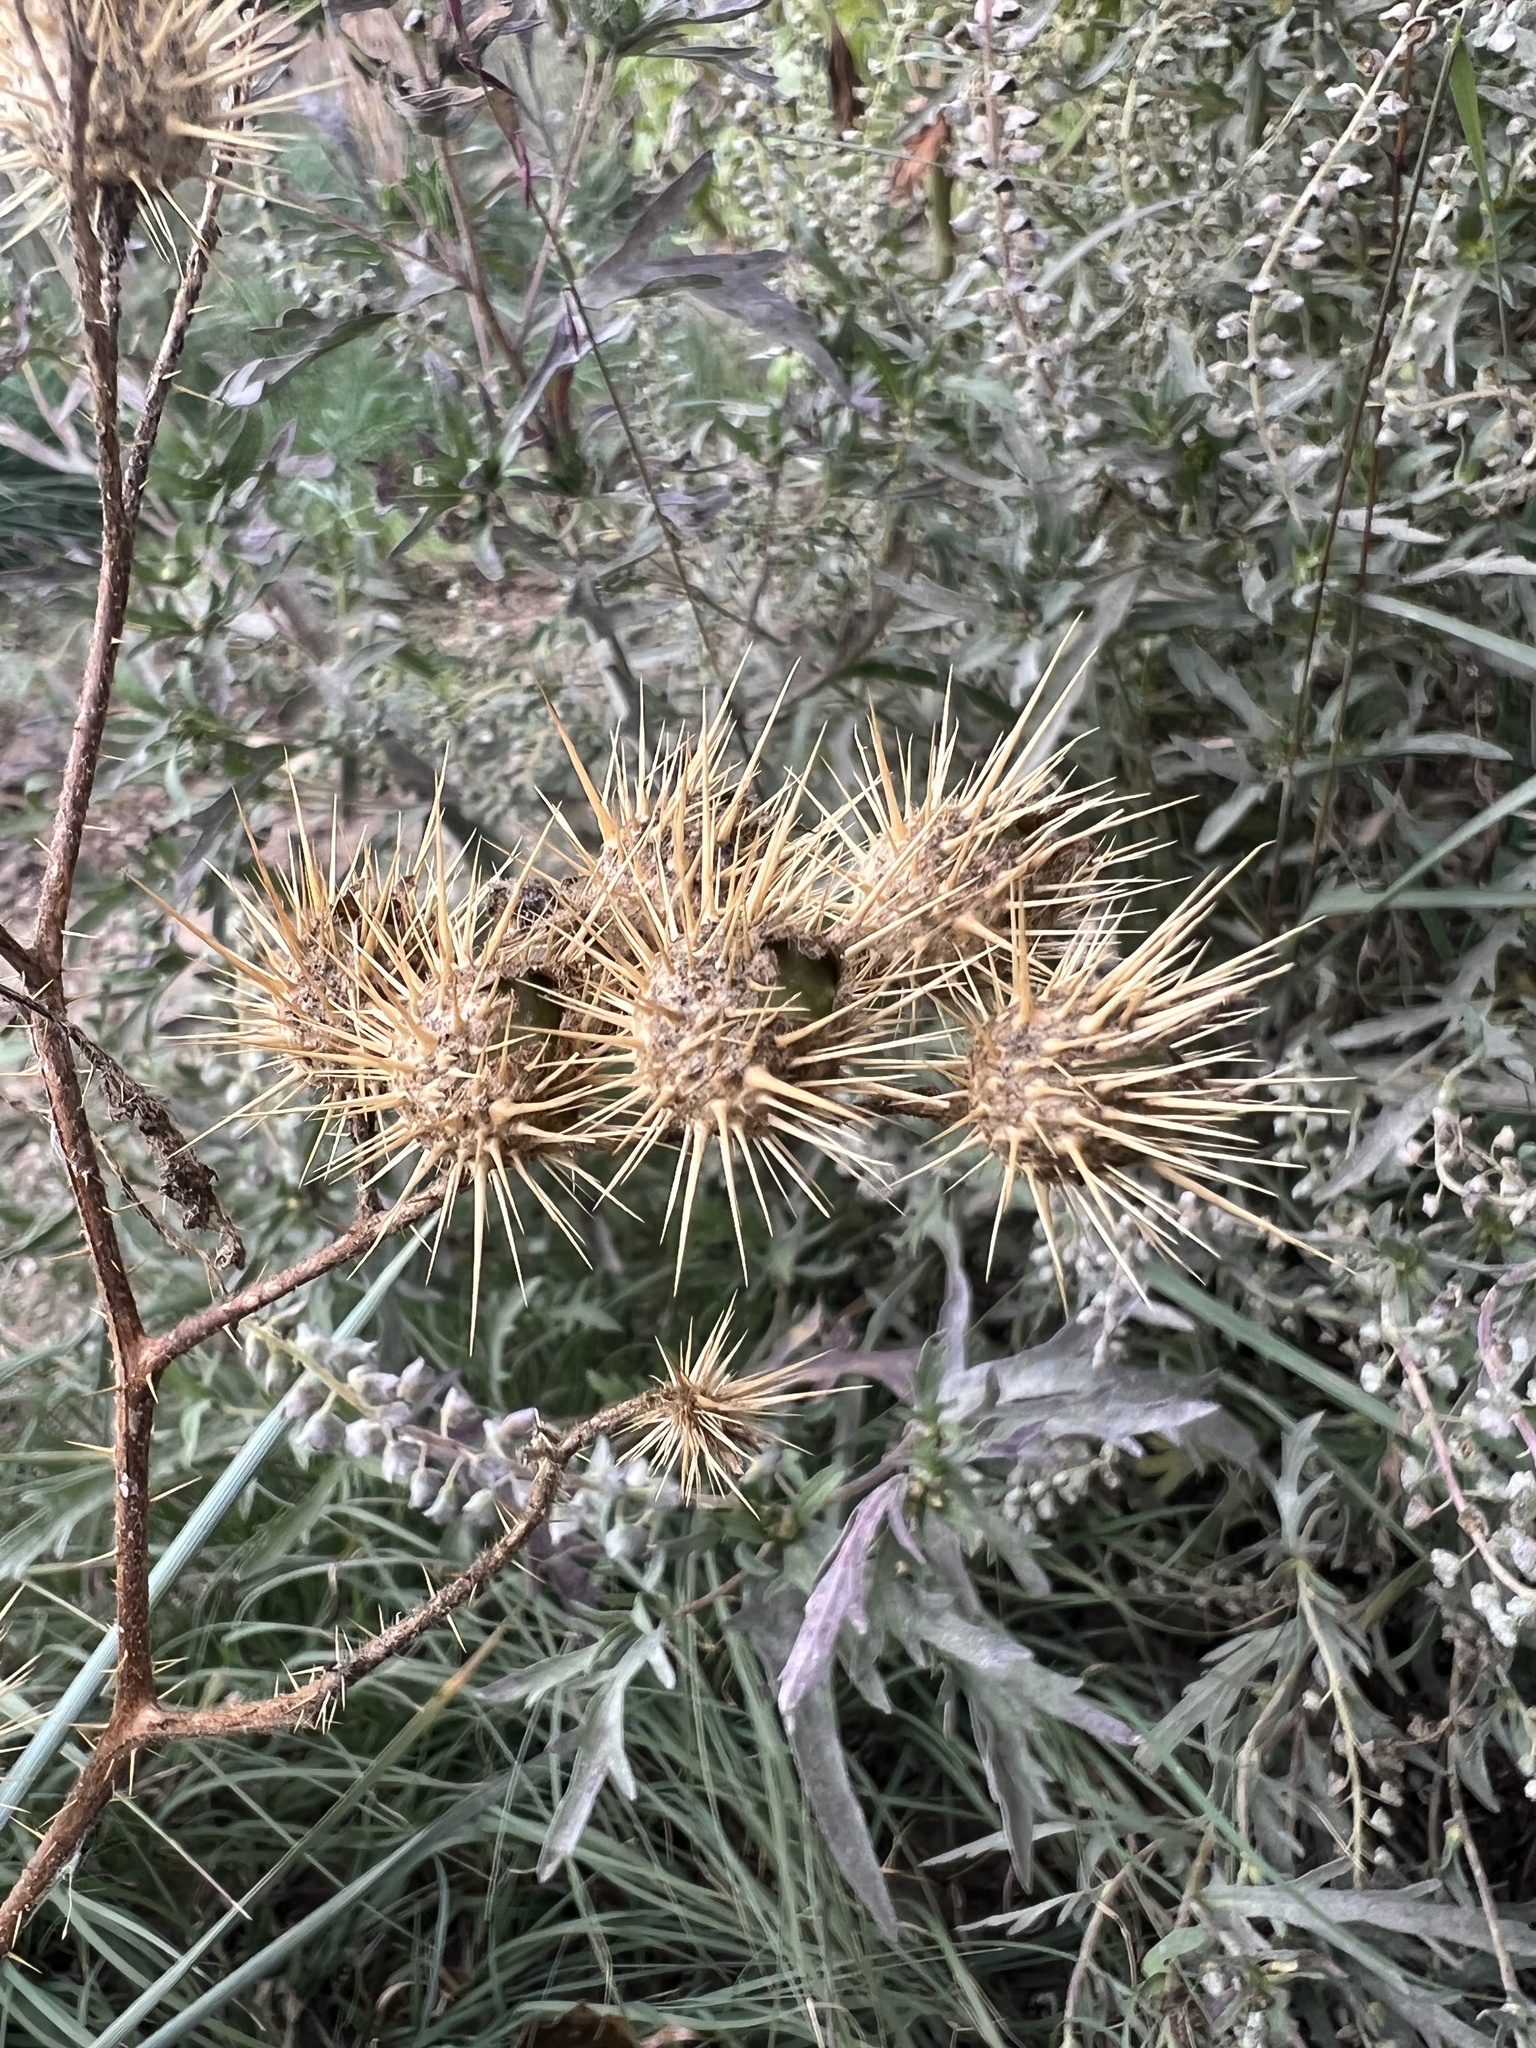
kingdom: Plantae
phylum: Tracheophyta
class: Magnoliopsida
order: Solanales
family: Solanaceae
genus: Solanum
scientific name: Solanum angustifolium
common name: Buffalobur nightshade
